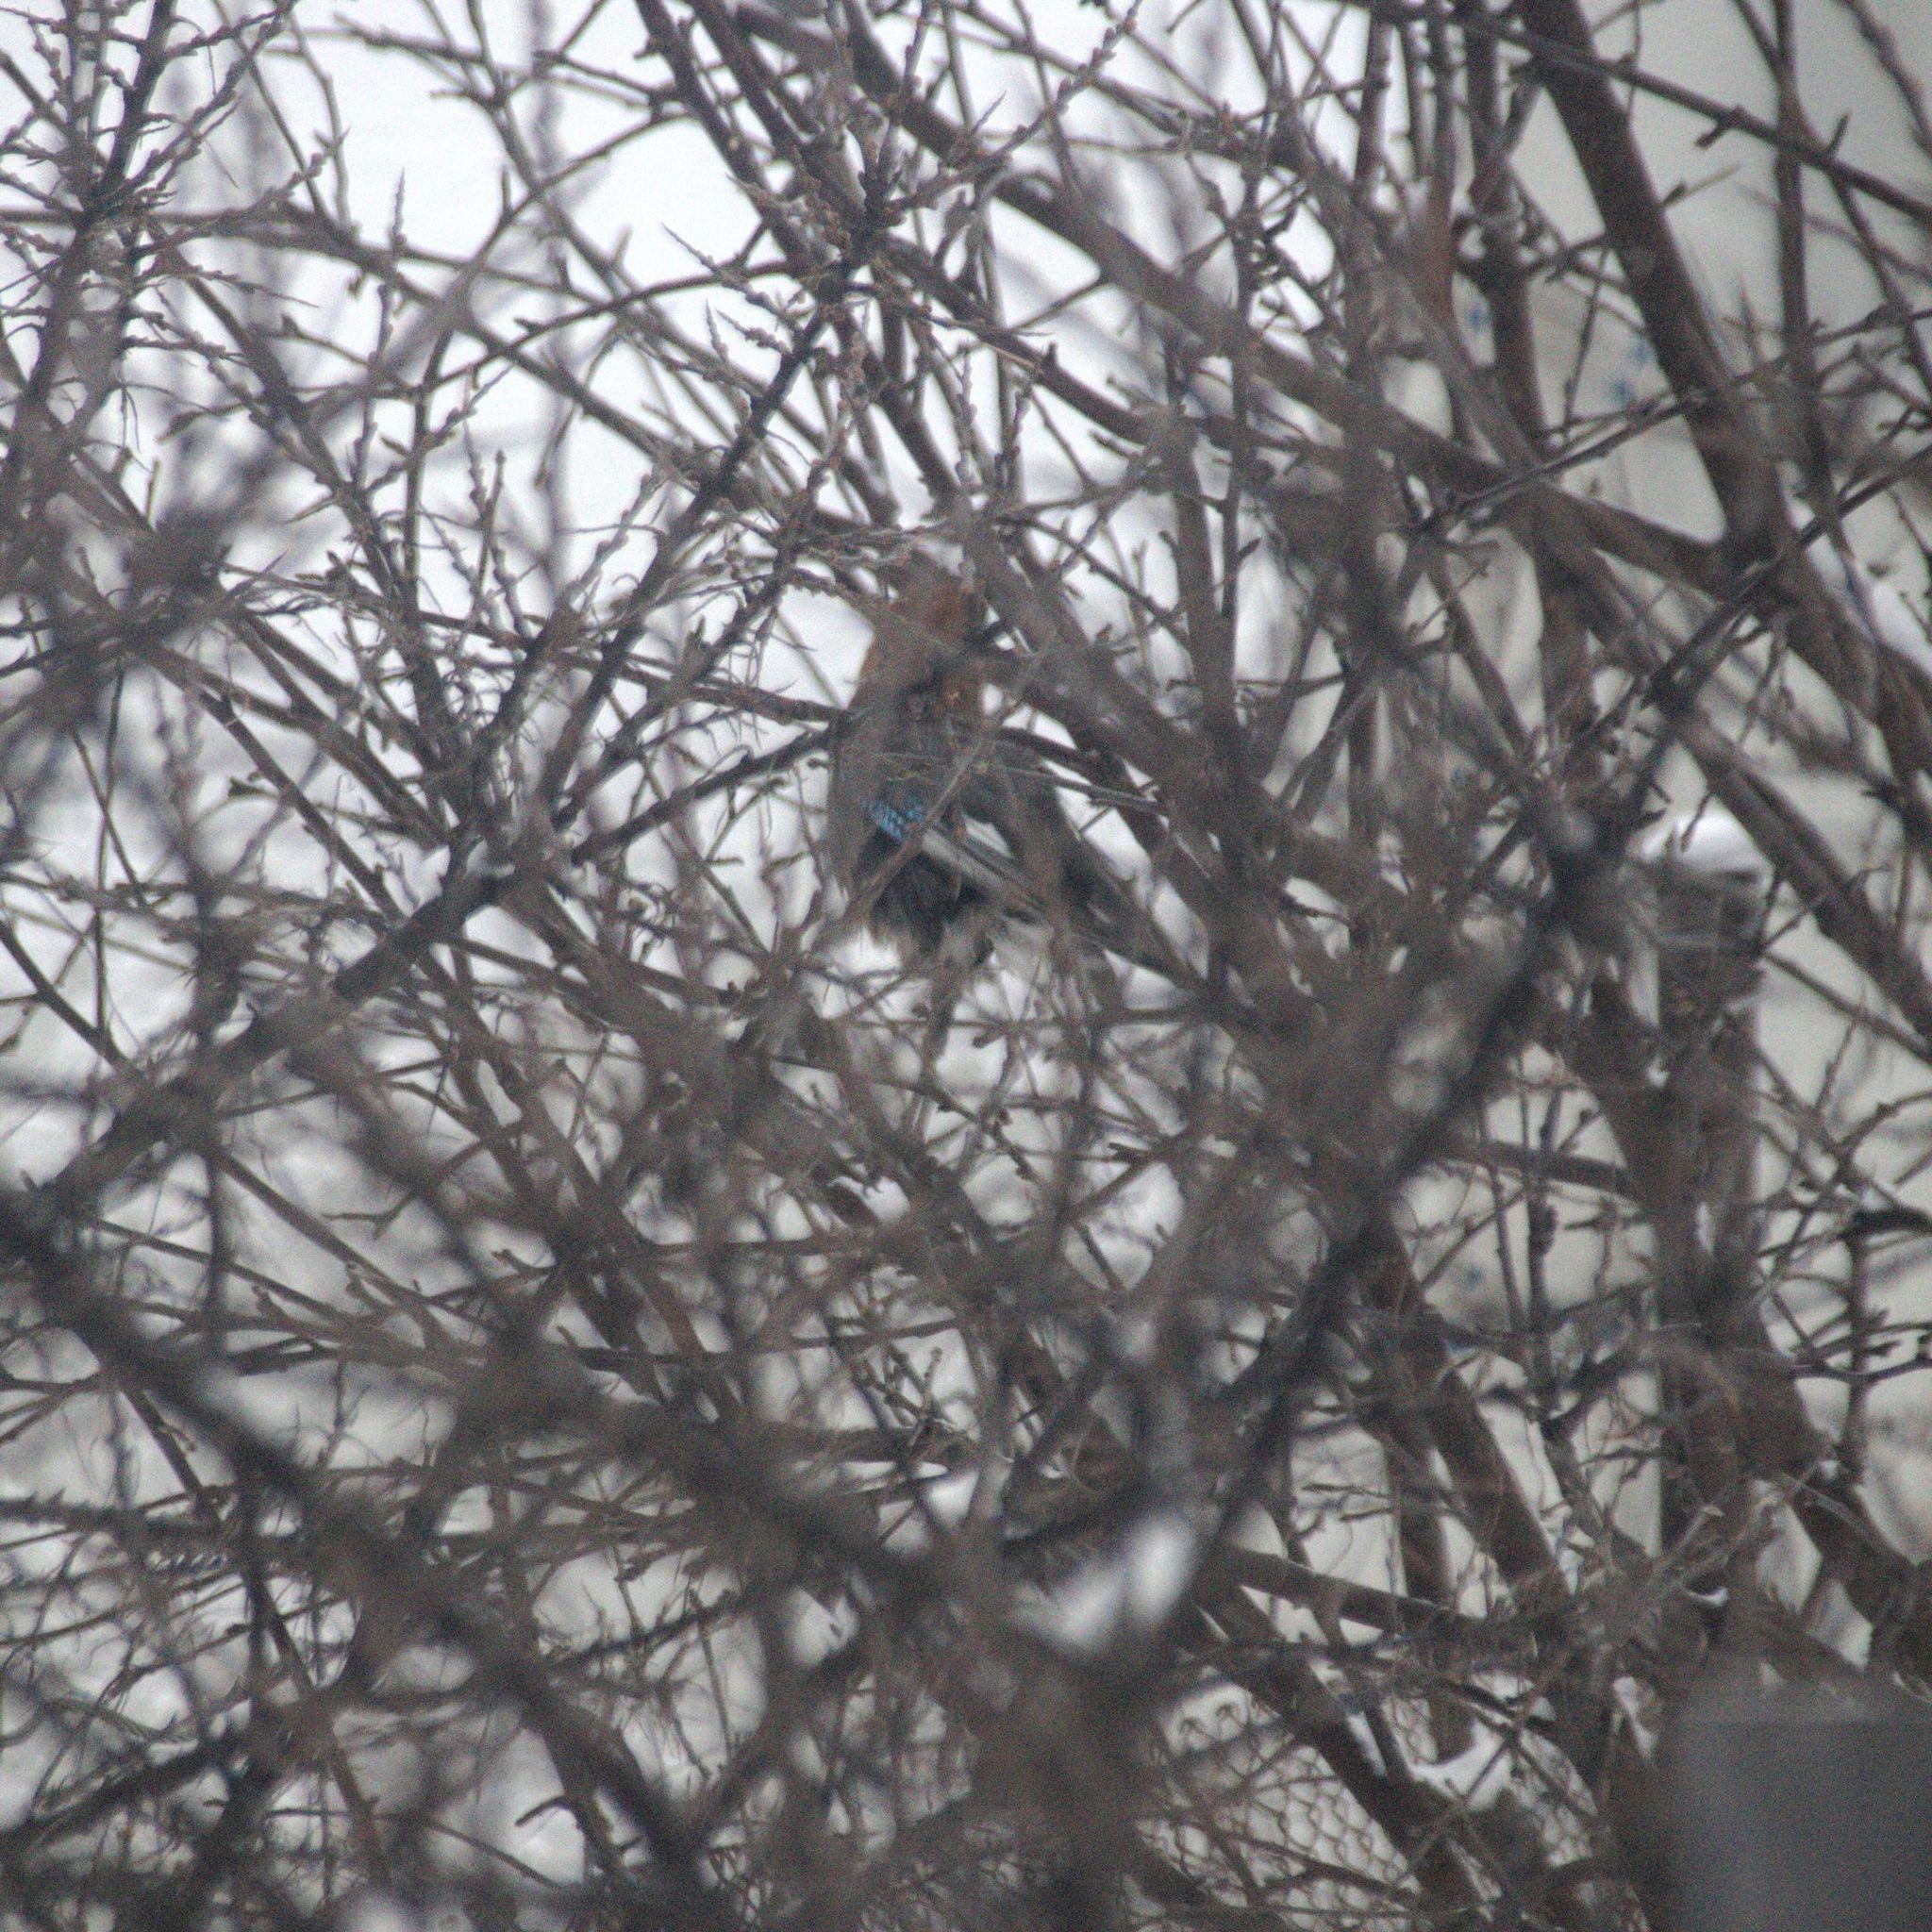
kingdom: Animalia
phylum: Chordata
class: Aves
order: Passeriformes
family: Corvidae
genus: Garrulus
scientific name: Garrulus glandarius
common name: Eurasian jay
